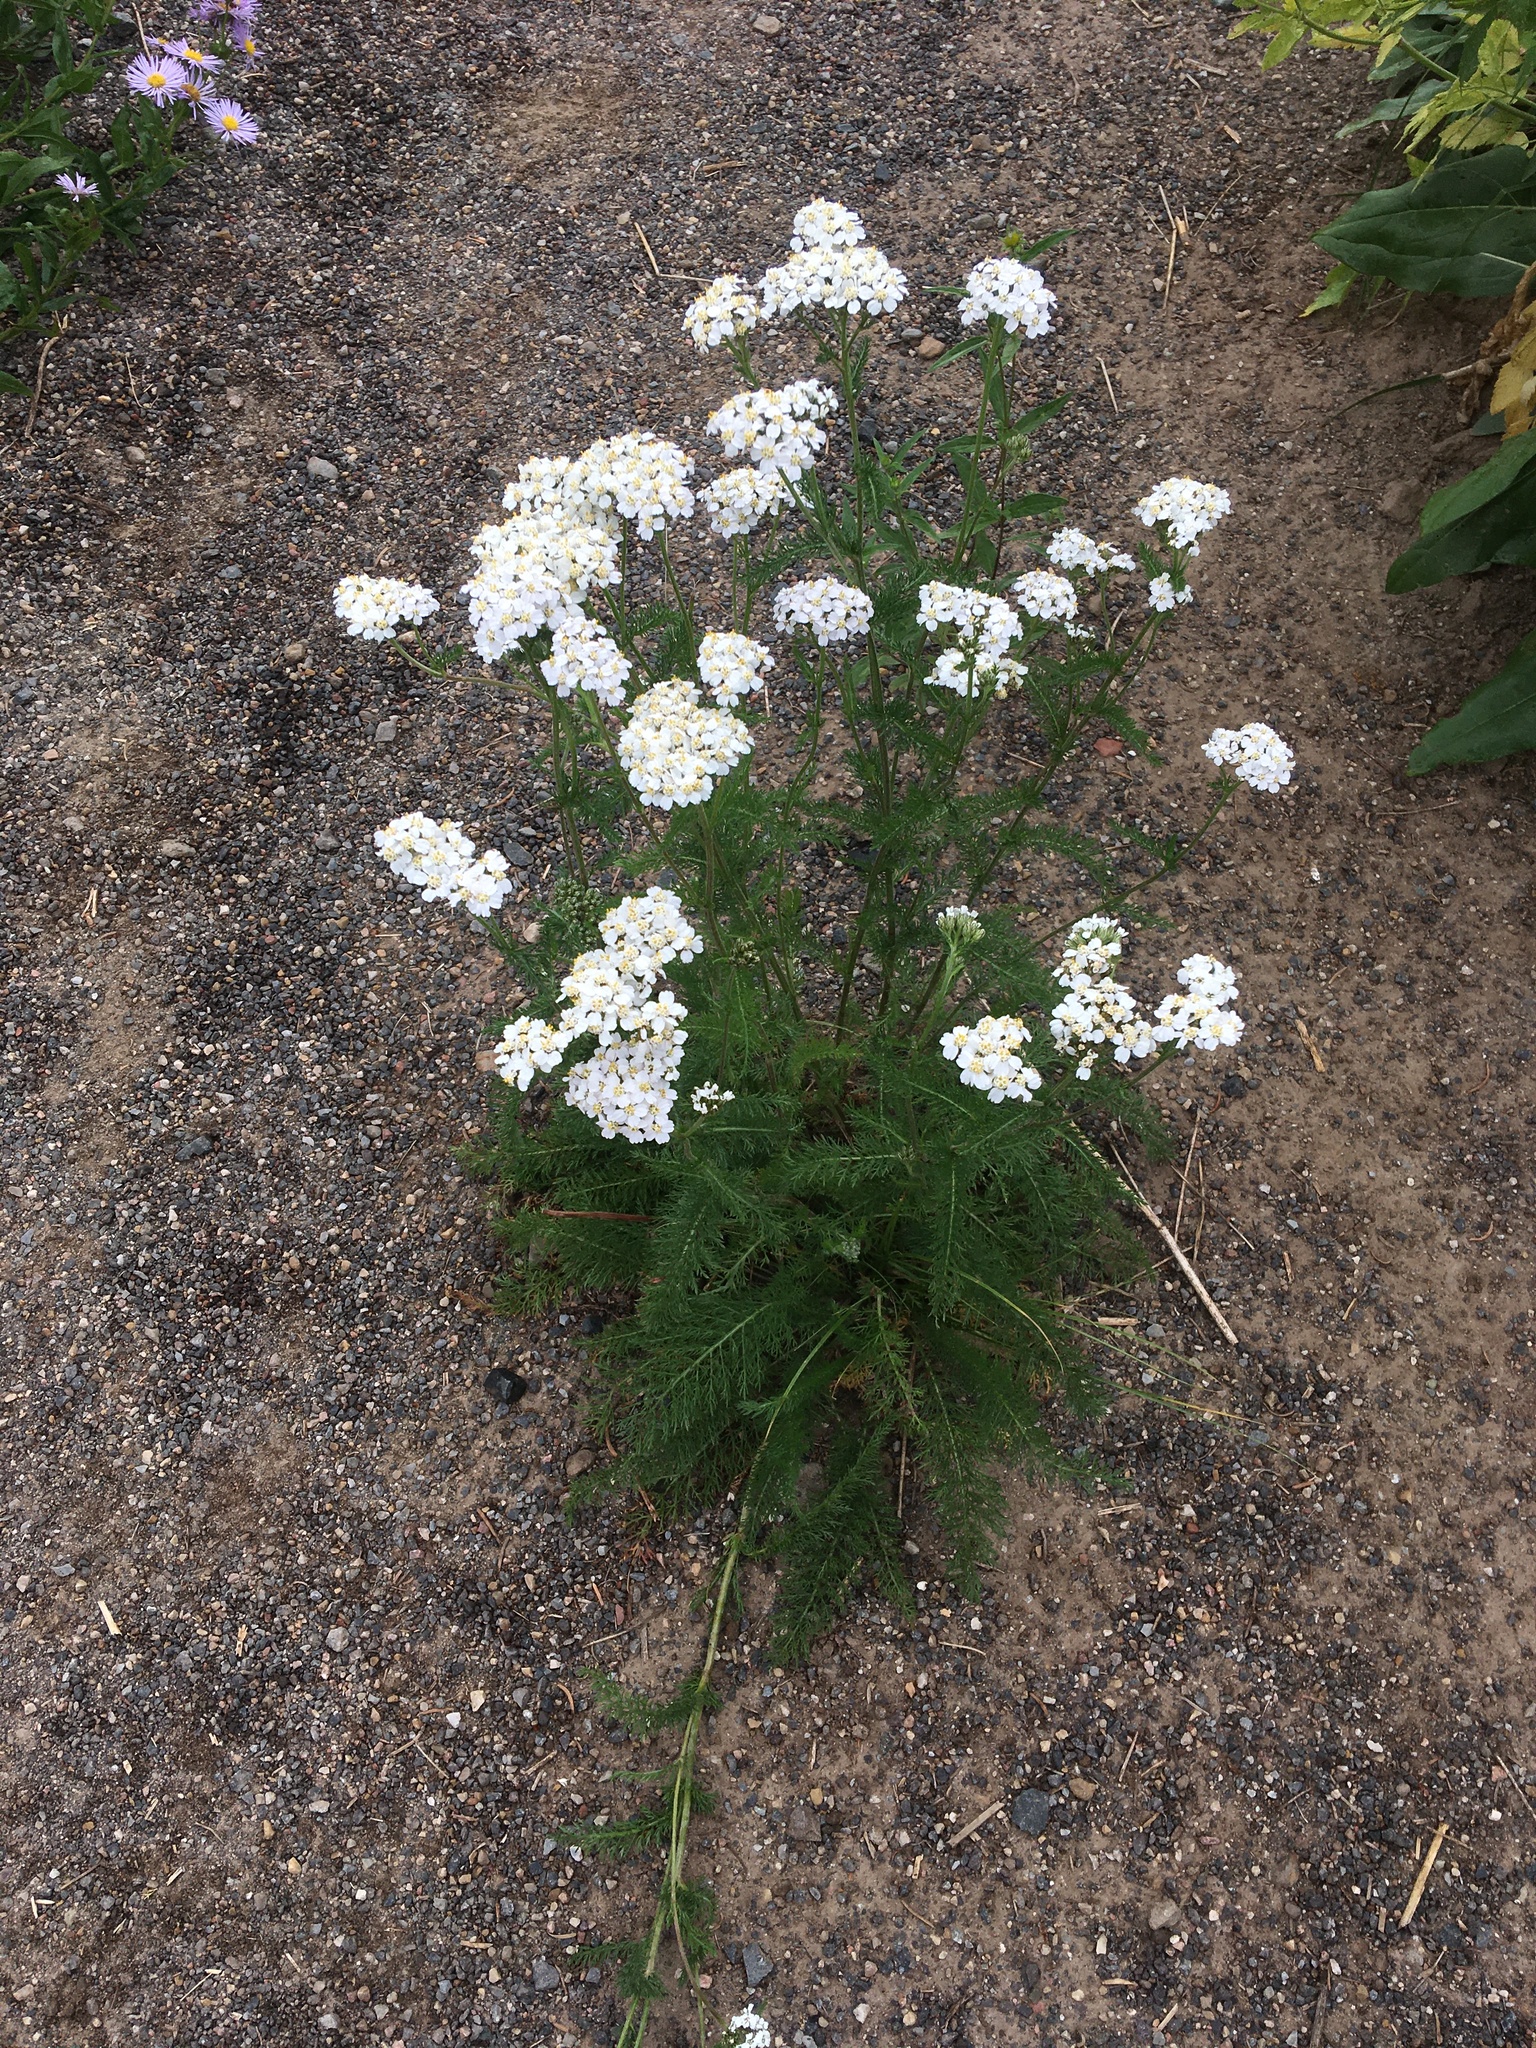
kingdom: Plantae
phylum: Tracheophyta
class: Magnoliopsida
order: Asterales
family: Asteraceae
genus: Achillea
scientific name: Achillea millefolium
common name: Yarrow
